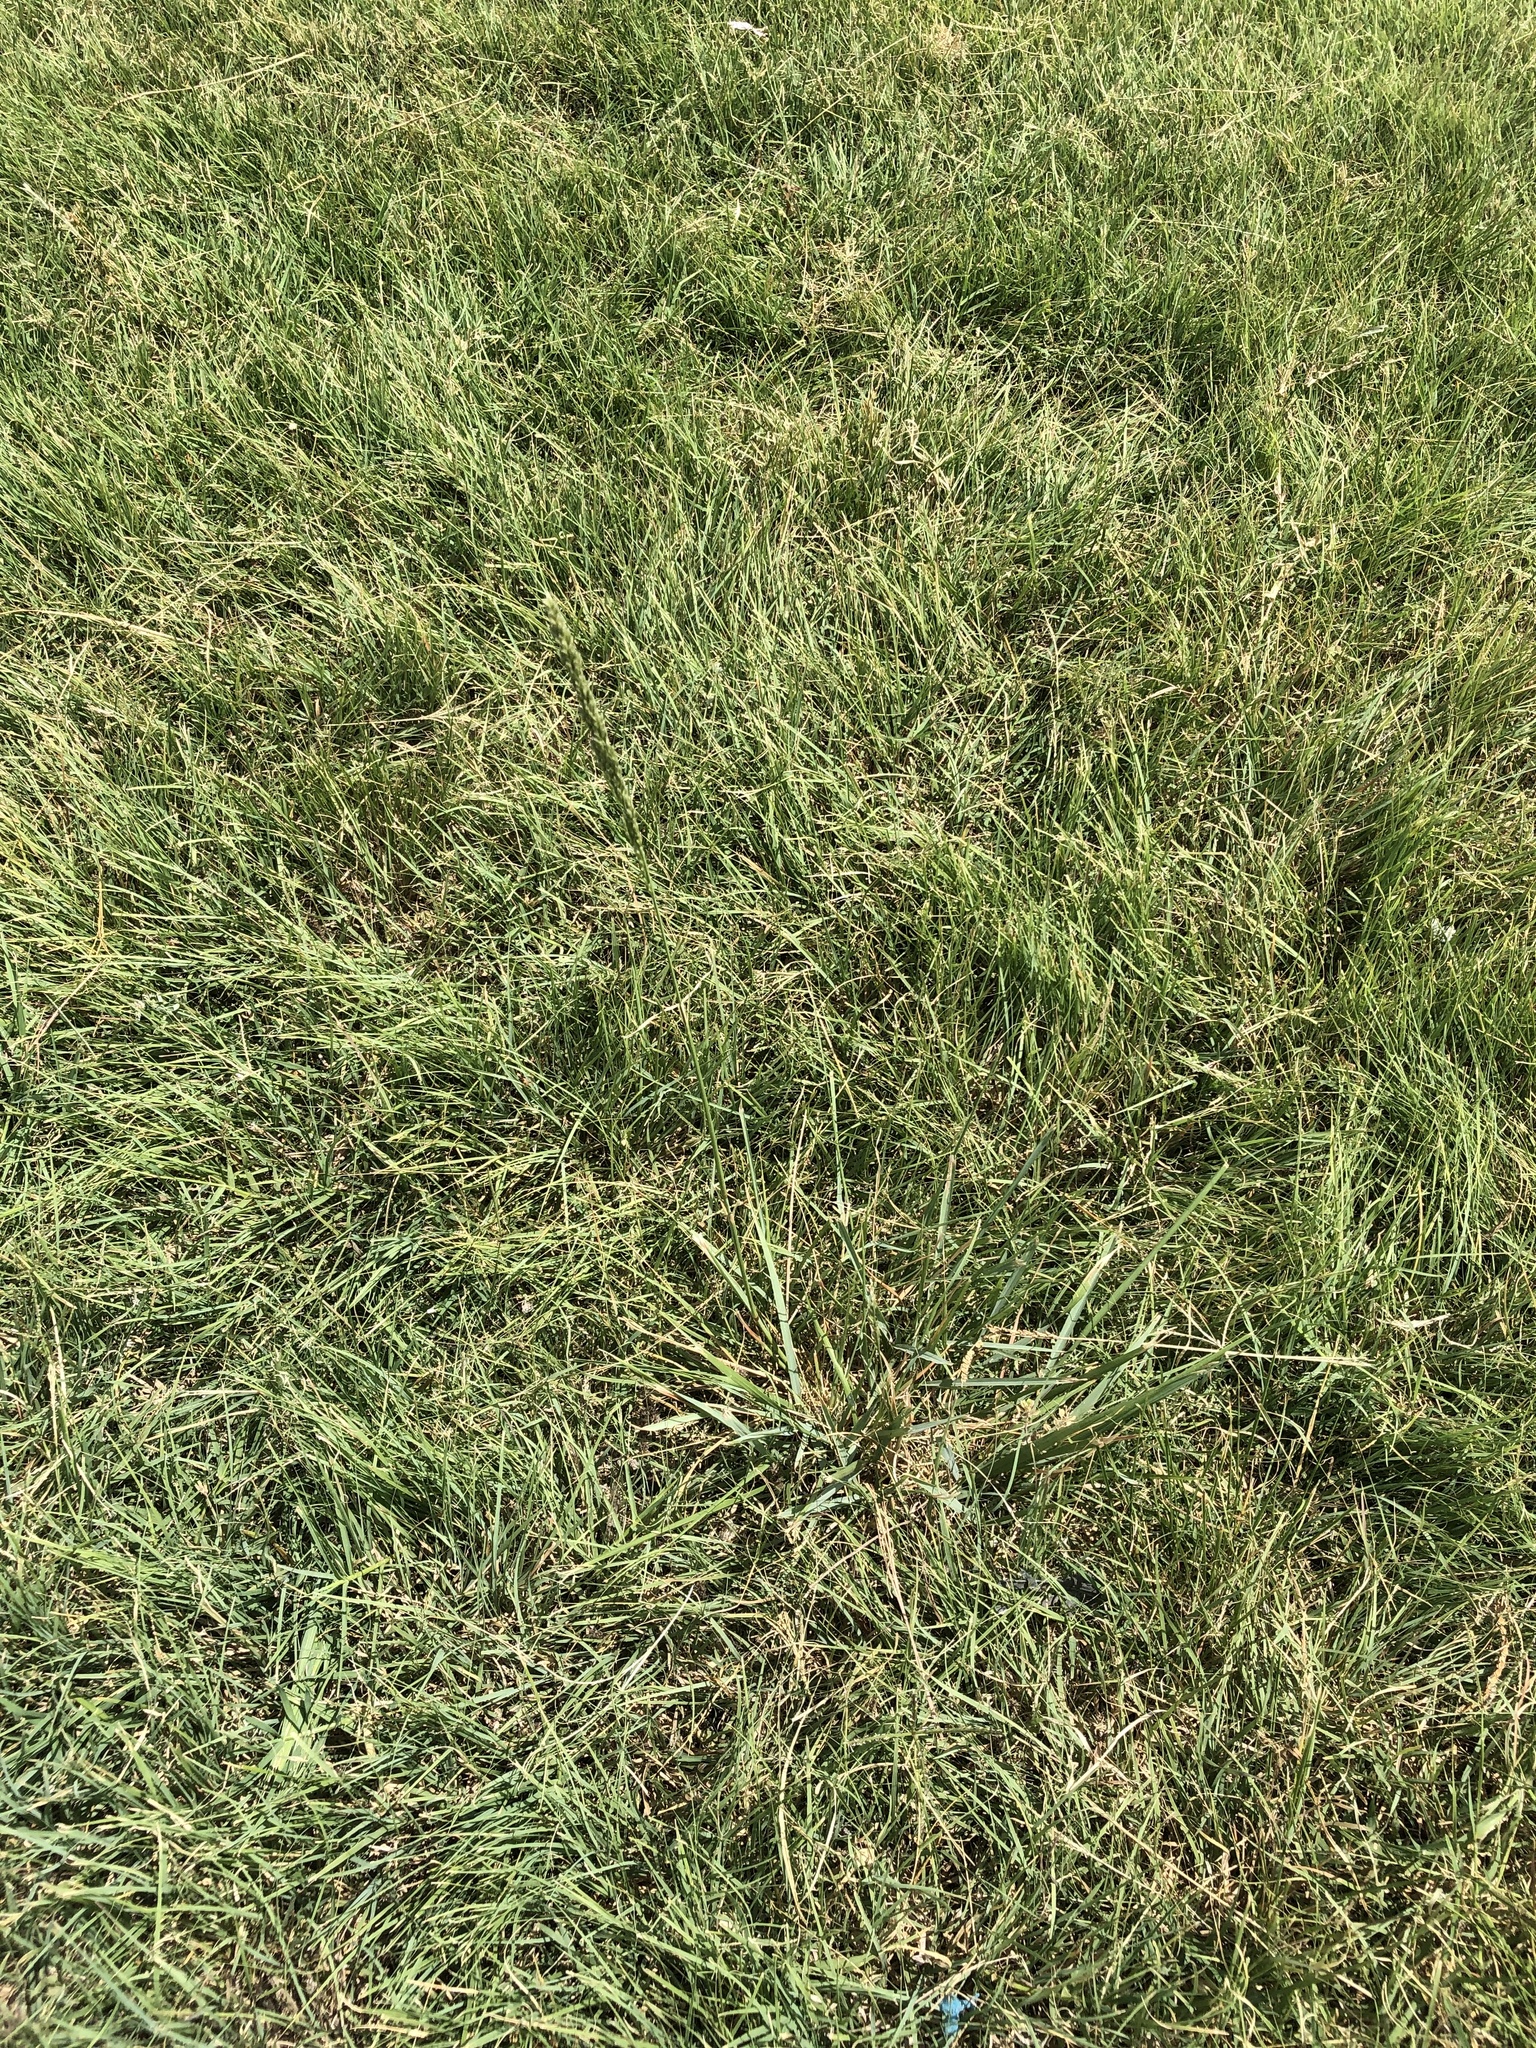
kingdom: Plantae
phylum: Tracheophyta
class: Liliopsida
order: Poales
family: Poaceae
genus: Tridens
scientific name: Tridens albescens
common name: White tridens
